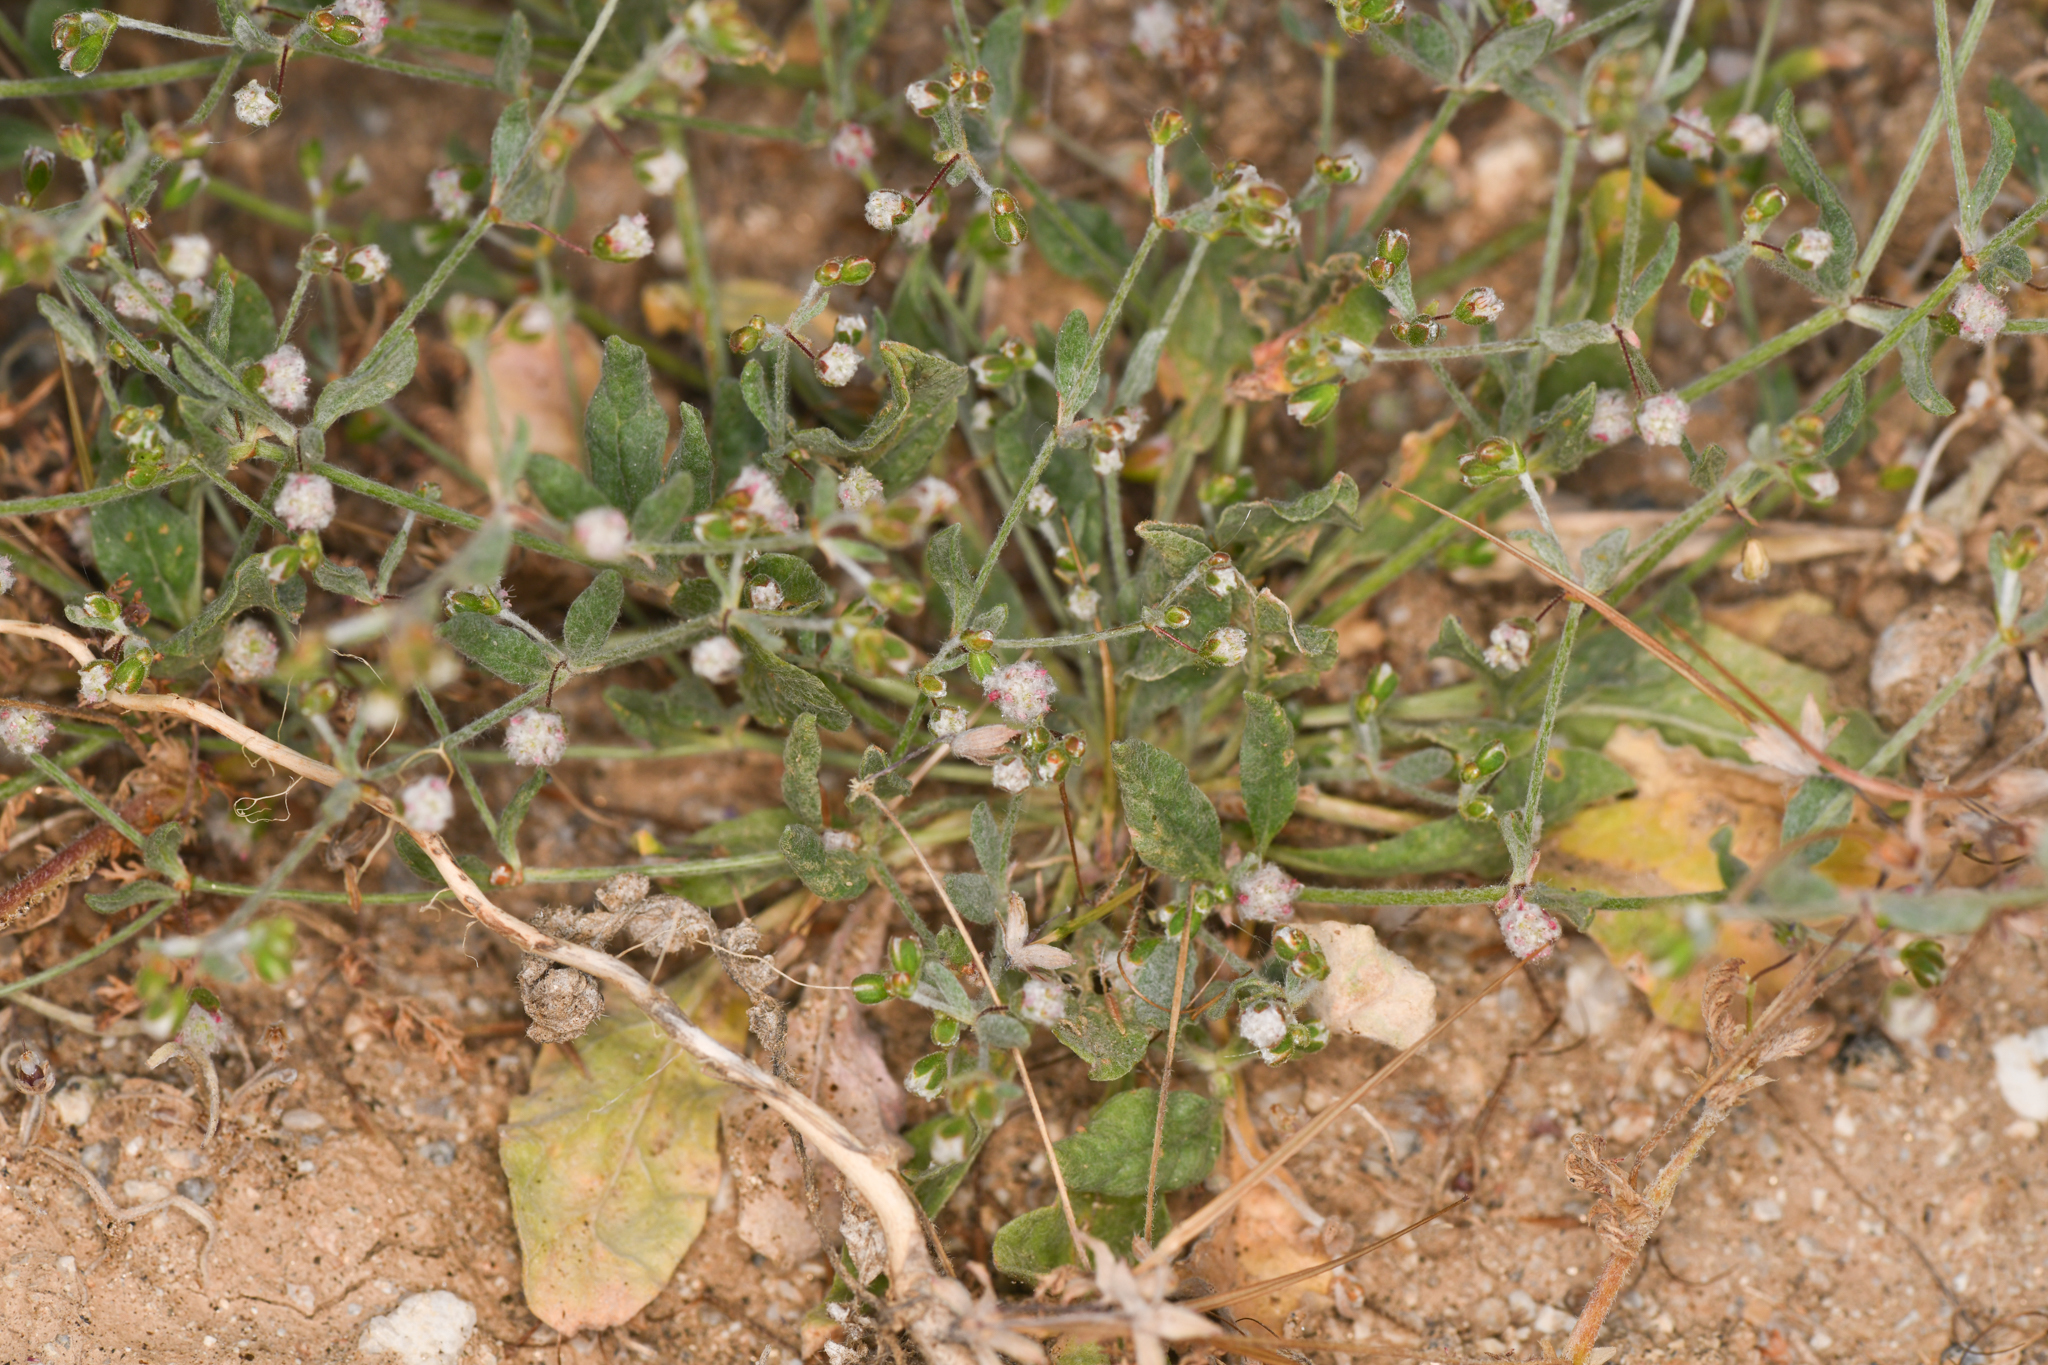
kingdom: Plantae
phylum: Tracheophyta
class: Magnoliopsida
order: Caryophyllales
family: Polygonaceae
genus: Eriogonum
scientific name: Eriogonum gossypinum
